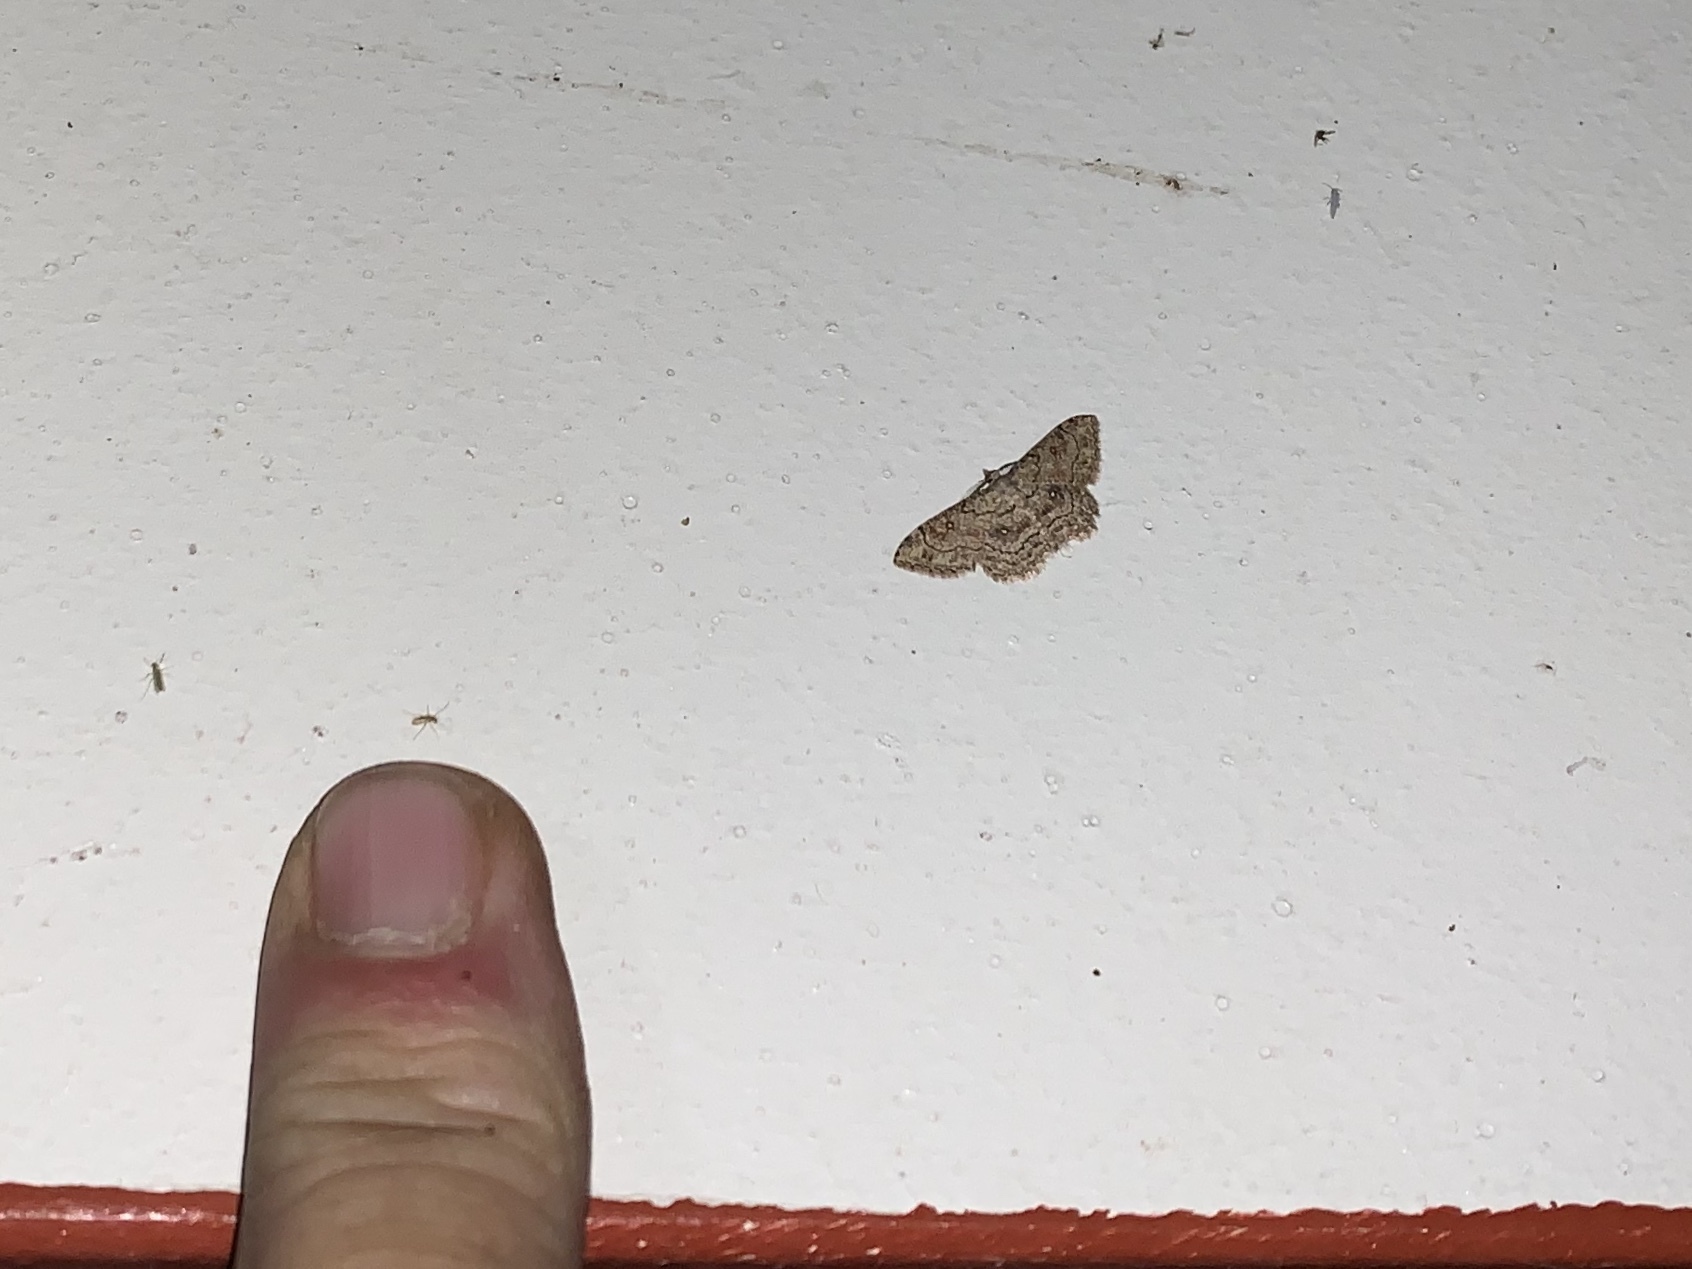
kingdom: Animalia
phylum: Arthropoda
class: Insecta
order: Lepidoptera
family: Geometridae
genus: Cyclophora
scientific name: Cyclophora nanaria
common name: Cankerworm
